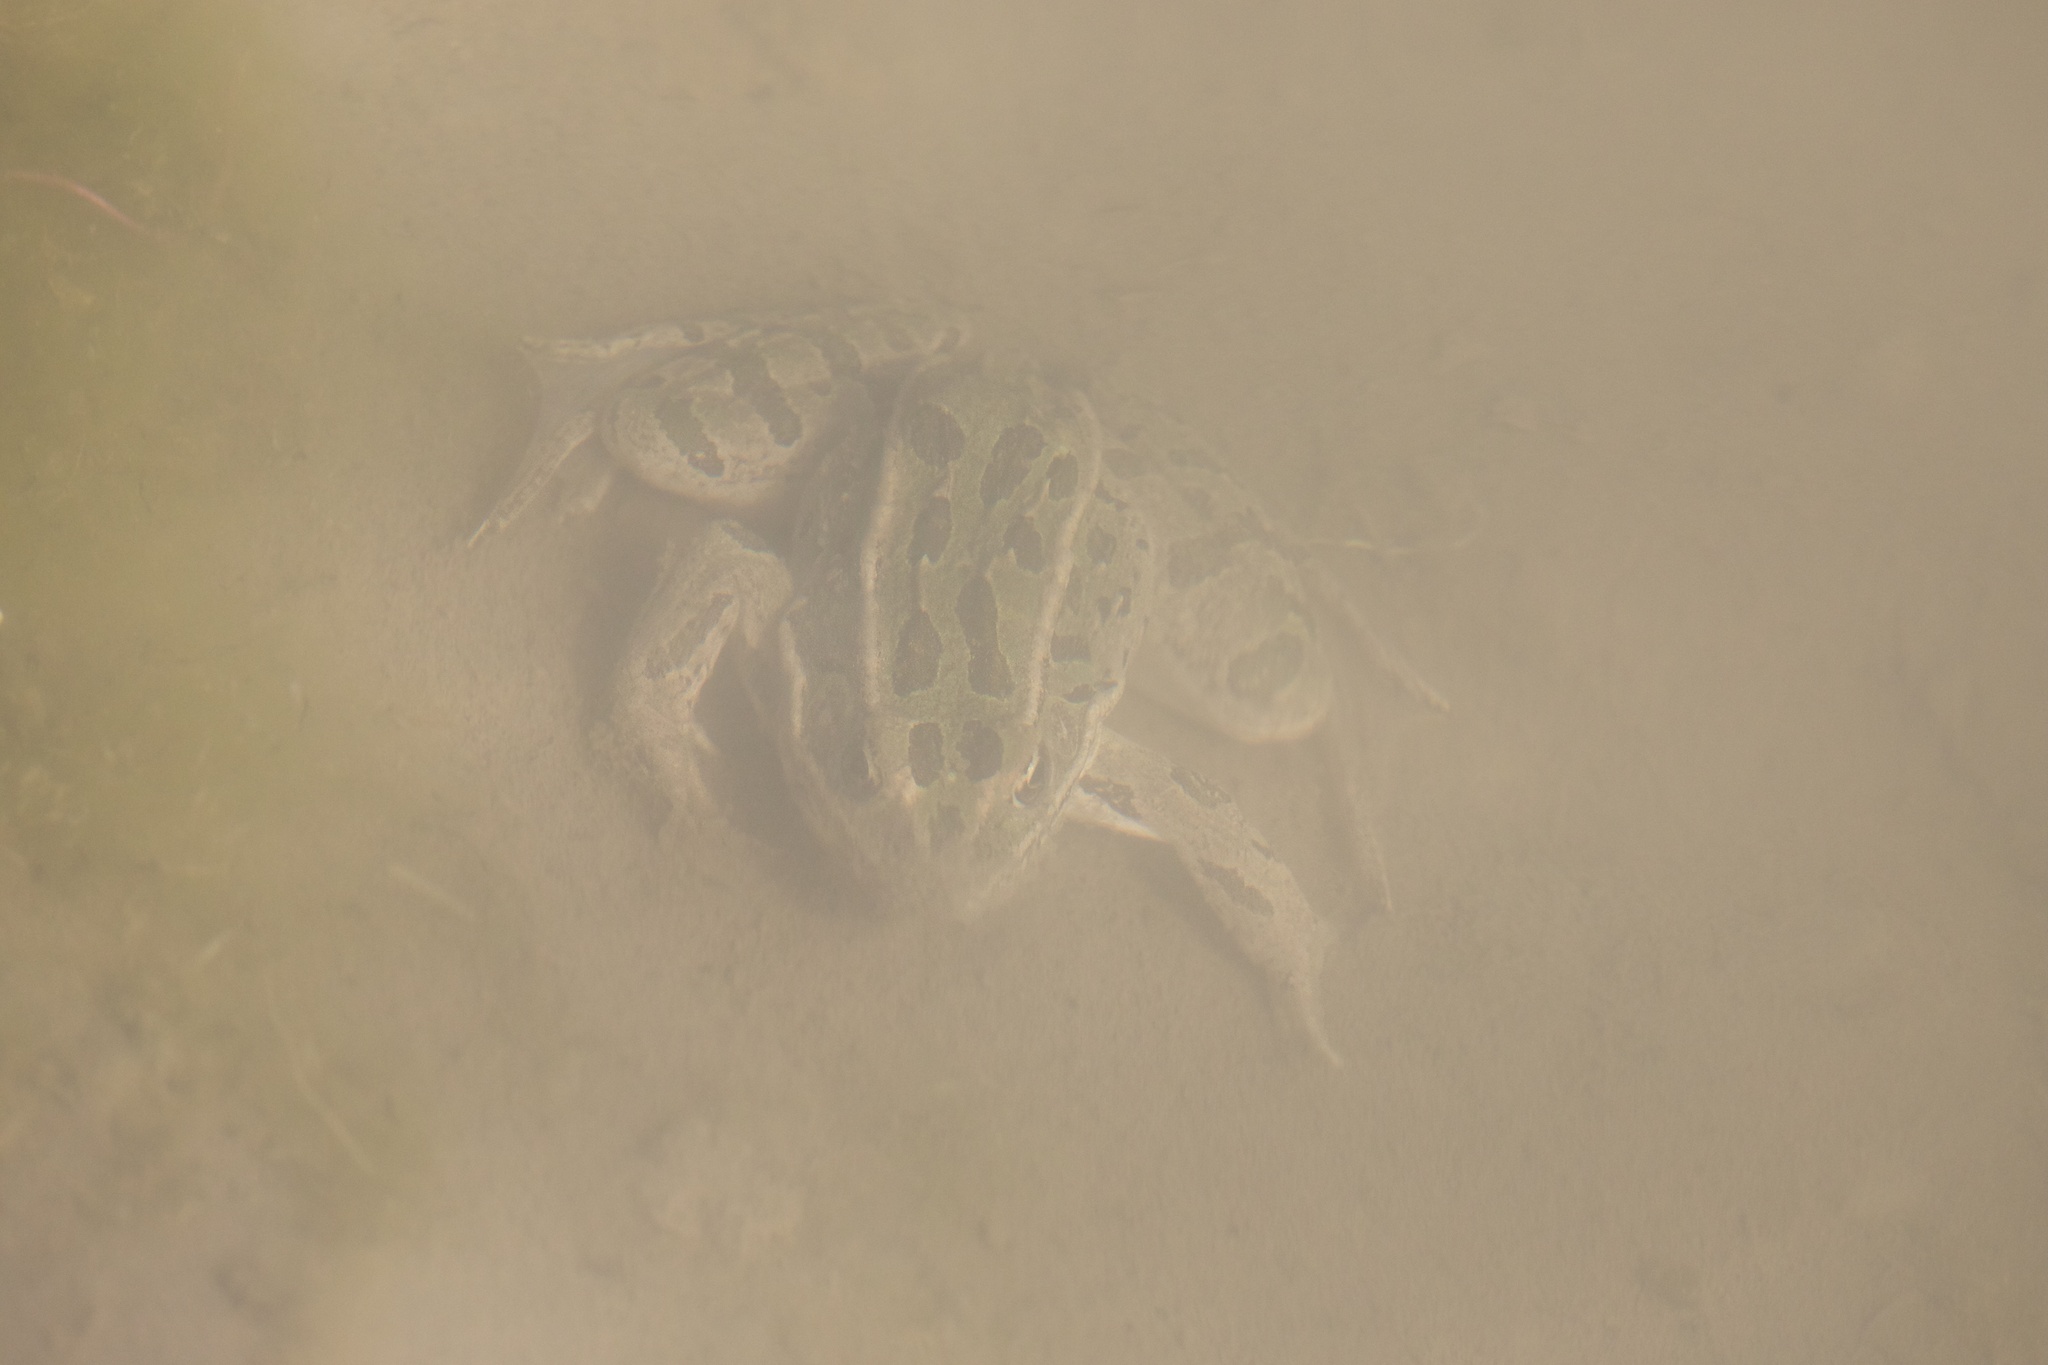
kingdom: Animalia
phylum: Chordata
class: Amphibia
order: Anura
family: Ranidae
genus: Lithobates
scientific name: Lithobates pipiens
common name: Northern leopard frog
